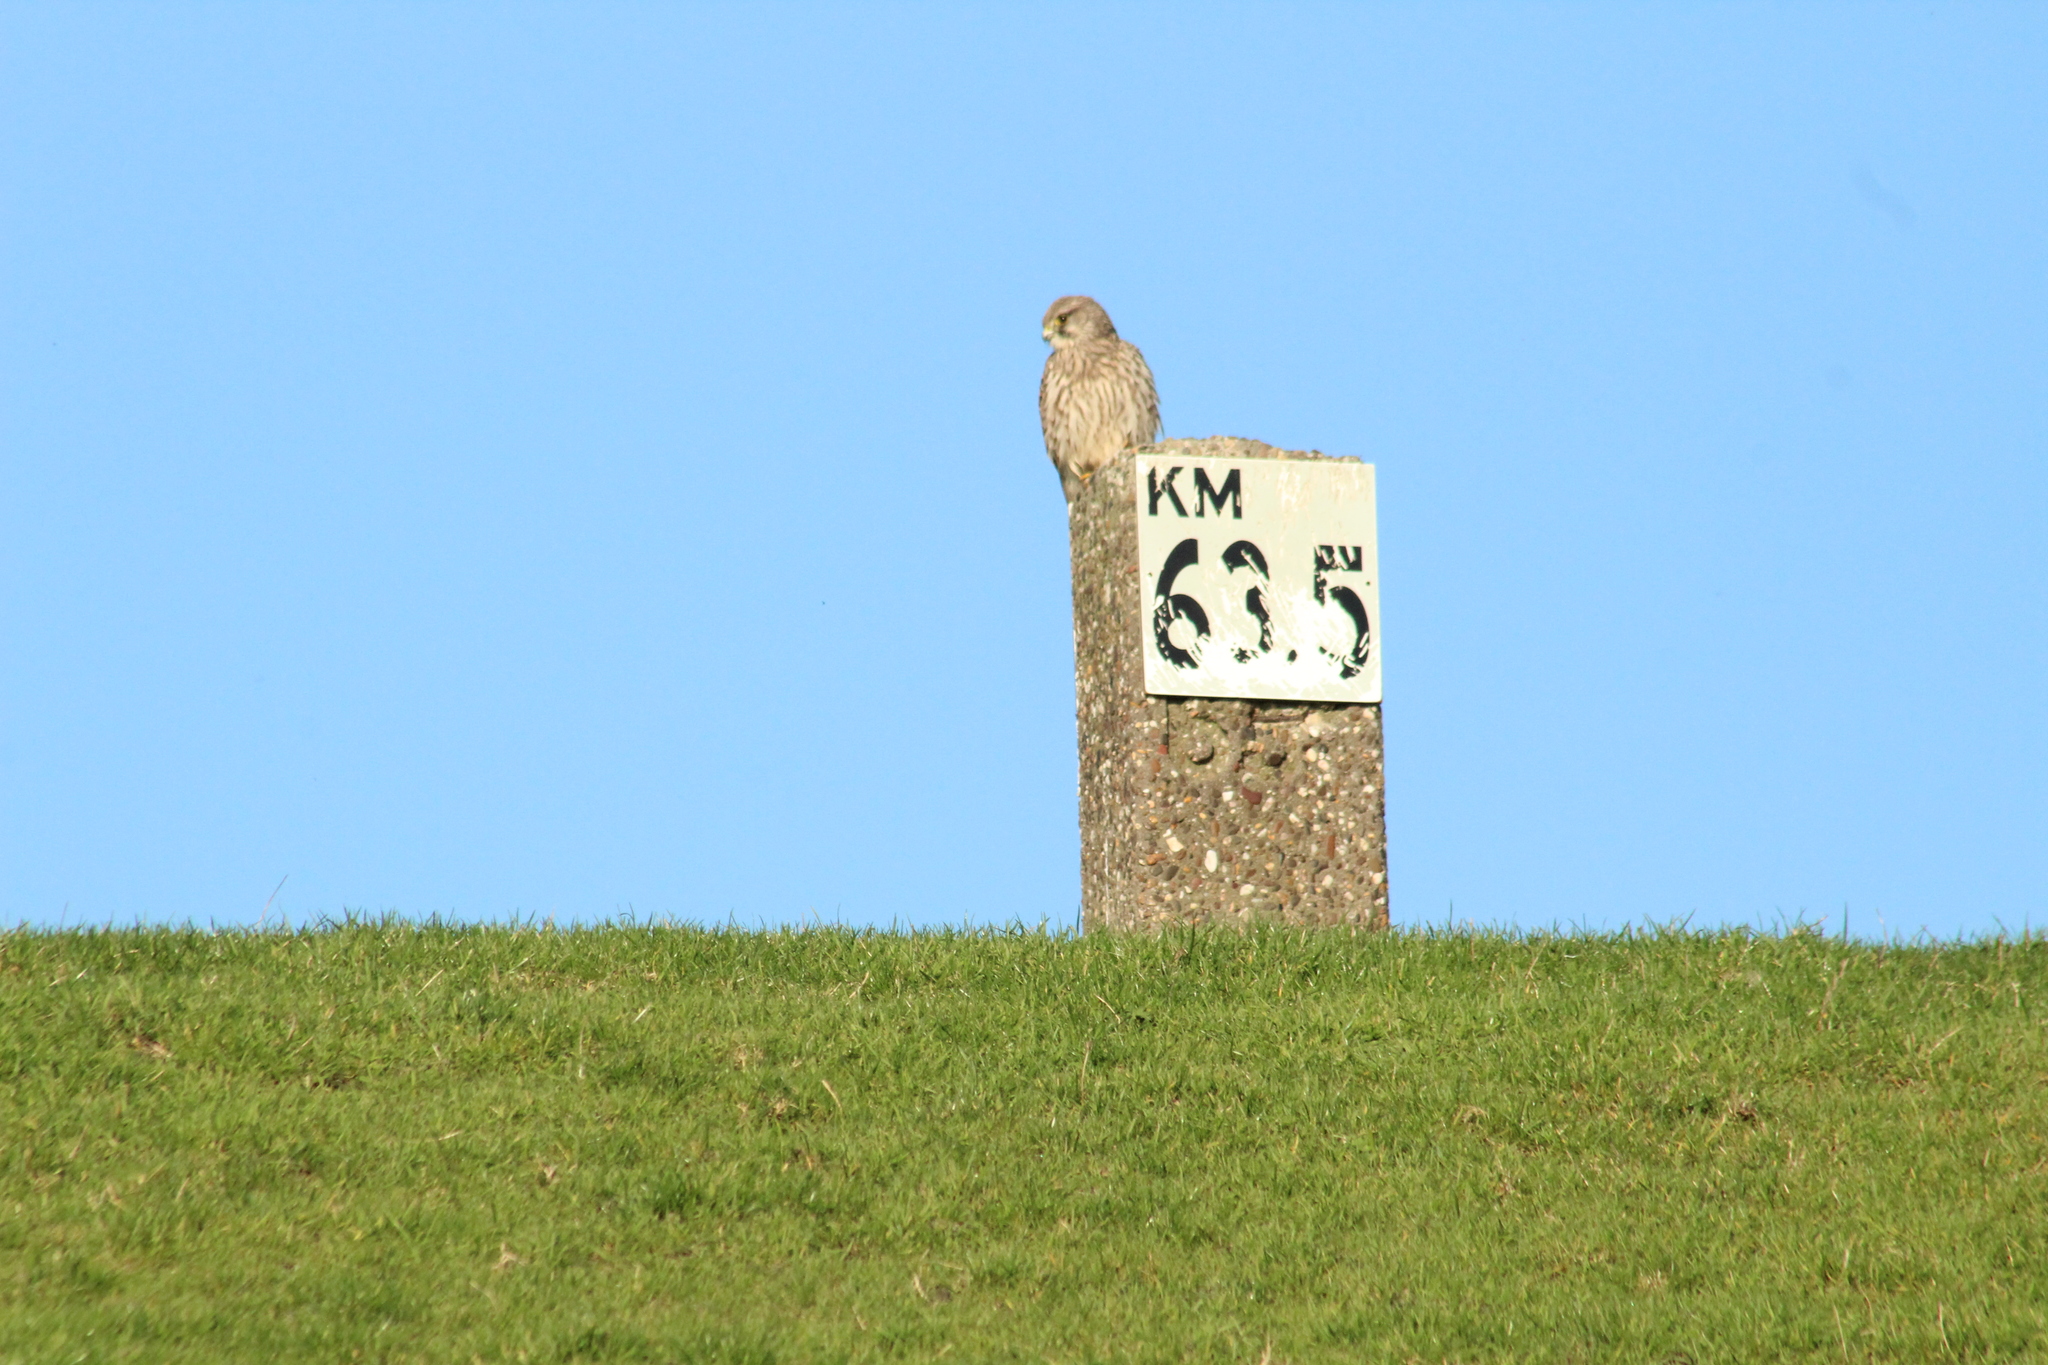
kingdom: Animalia
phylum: Chordata
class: Aves
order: Falconiformes
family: Falconidae
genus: Falco
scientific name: Falco tinnunculus
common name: Common kestrel
